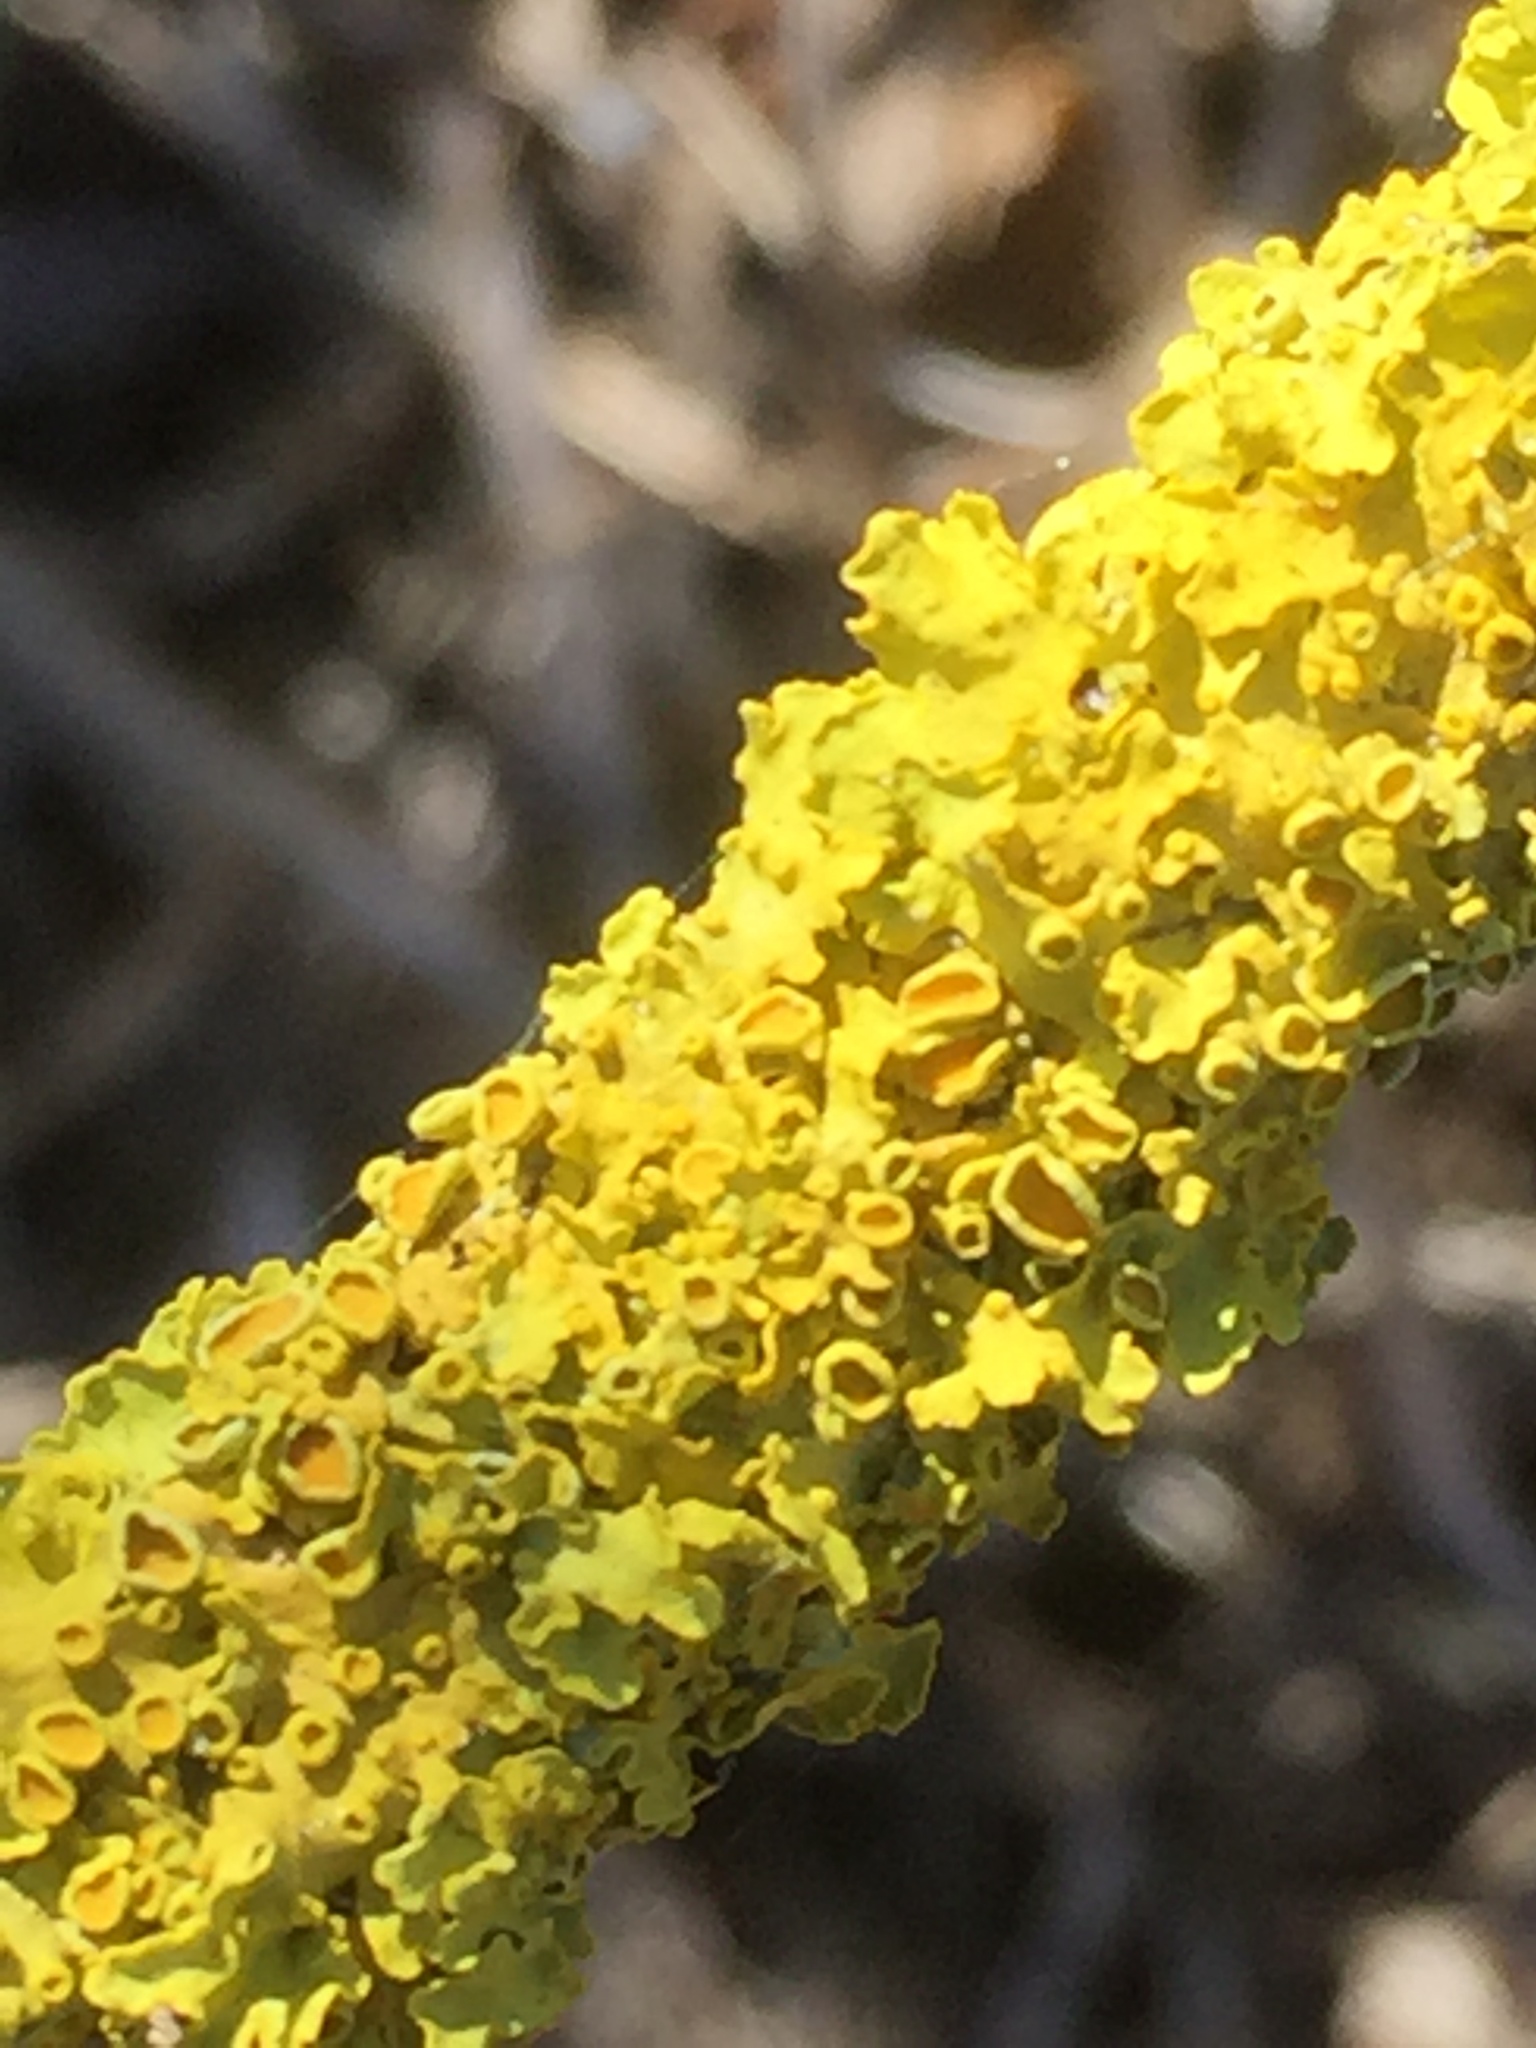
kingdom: Fungi
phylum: Ascomycota
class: Lecanoromycetes
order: Teloschistales
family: Teloschistaceae
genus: Xanthoria
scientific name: Xanthoria parietina
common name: Common orange lichen
